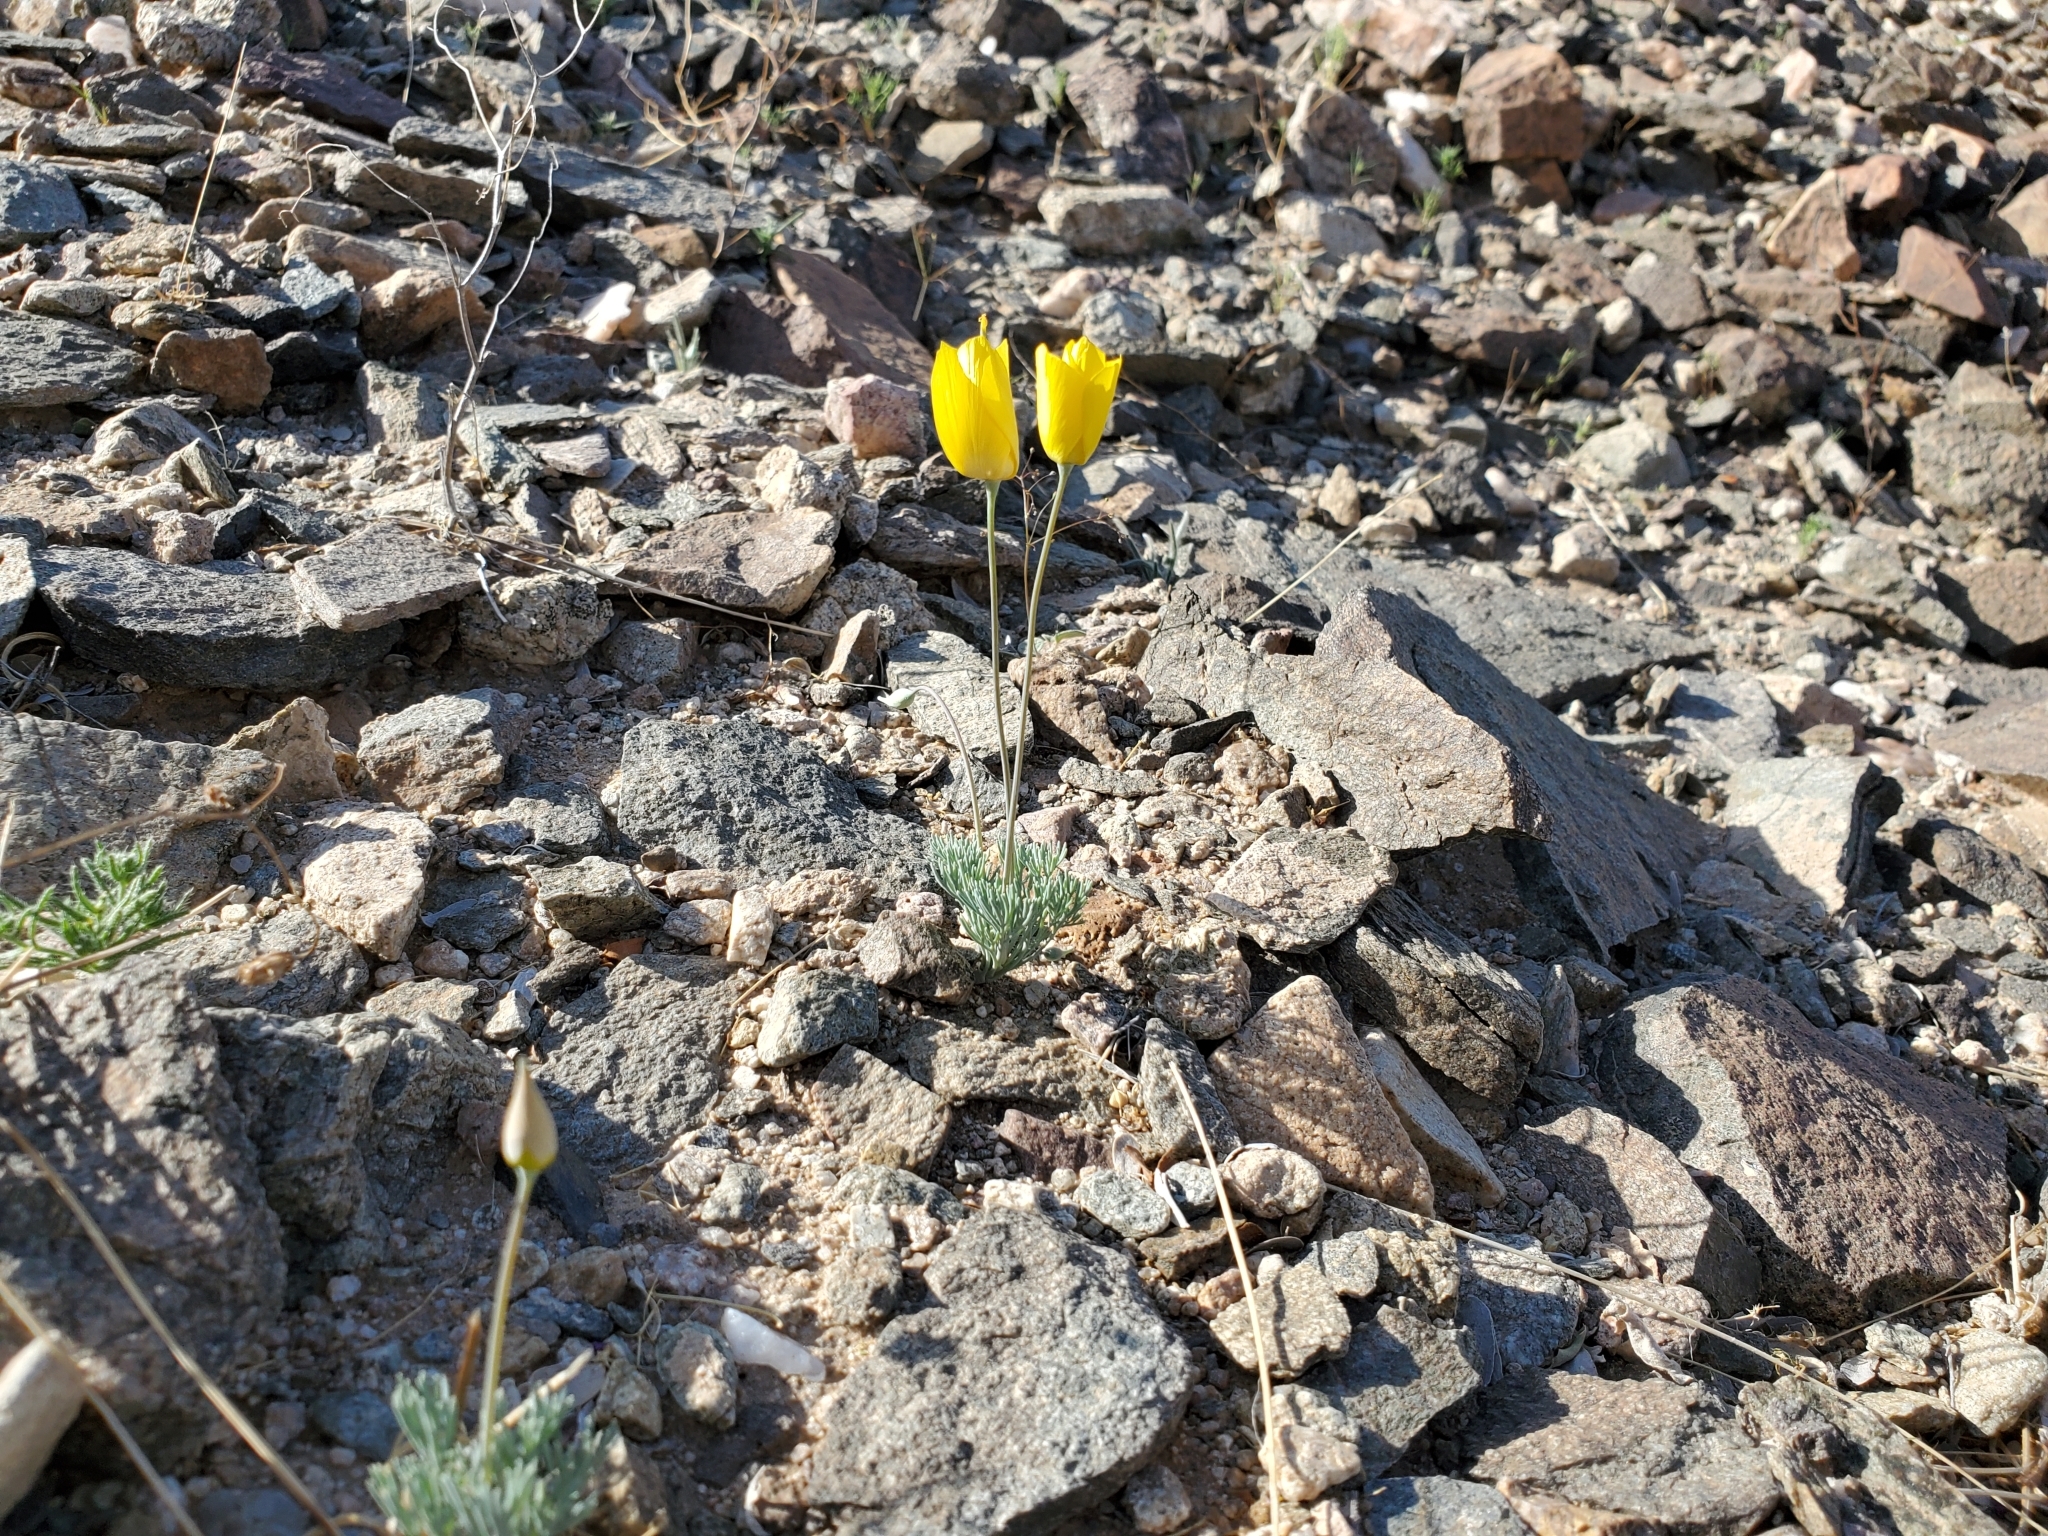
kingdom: Plantae
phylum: Tracheophyta
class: Magnoliopsida
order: Ranunculales
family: Papaveraceae
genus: Eschscholzia
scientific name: Eschscholzia glyptosperma
